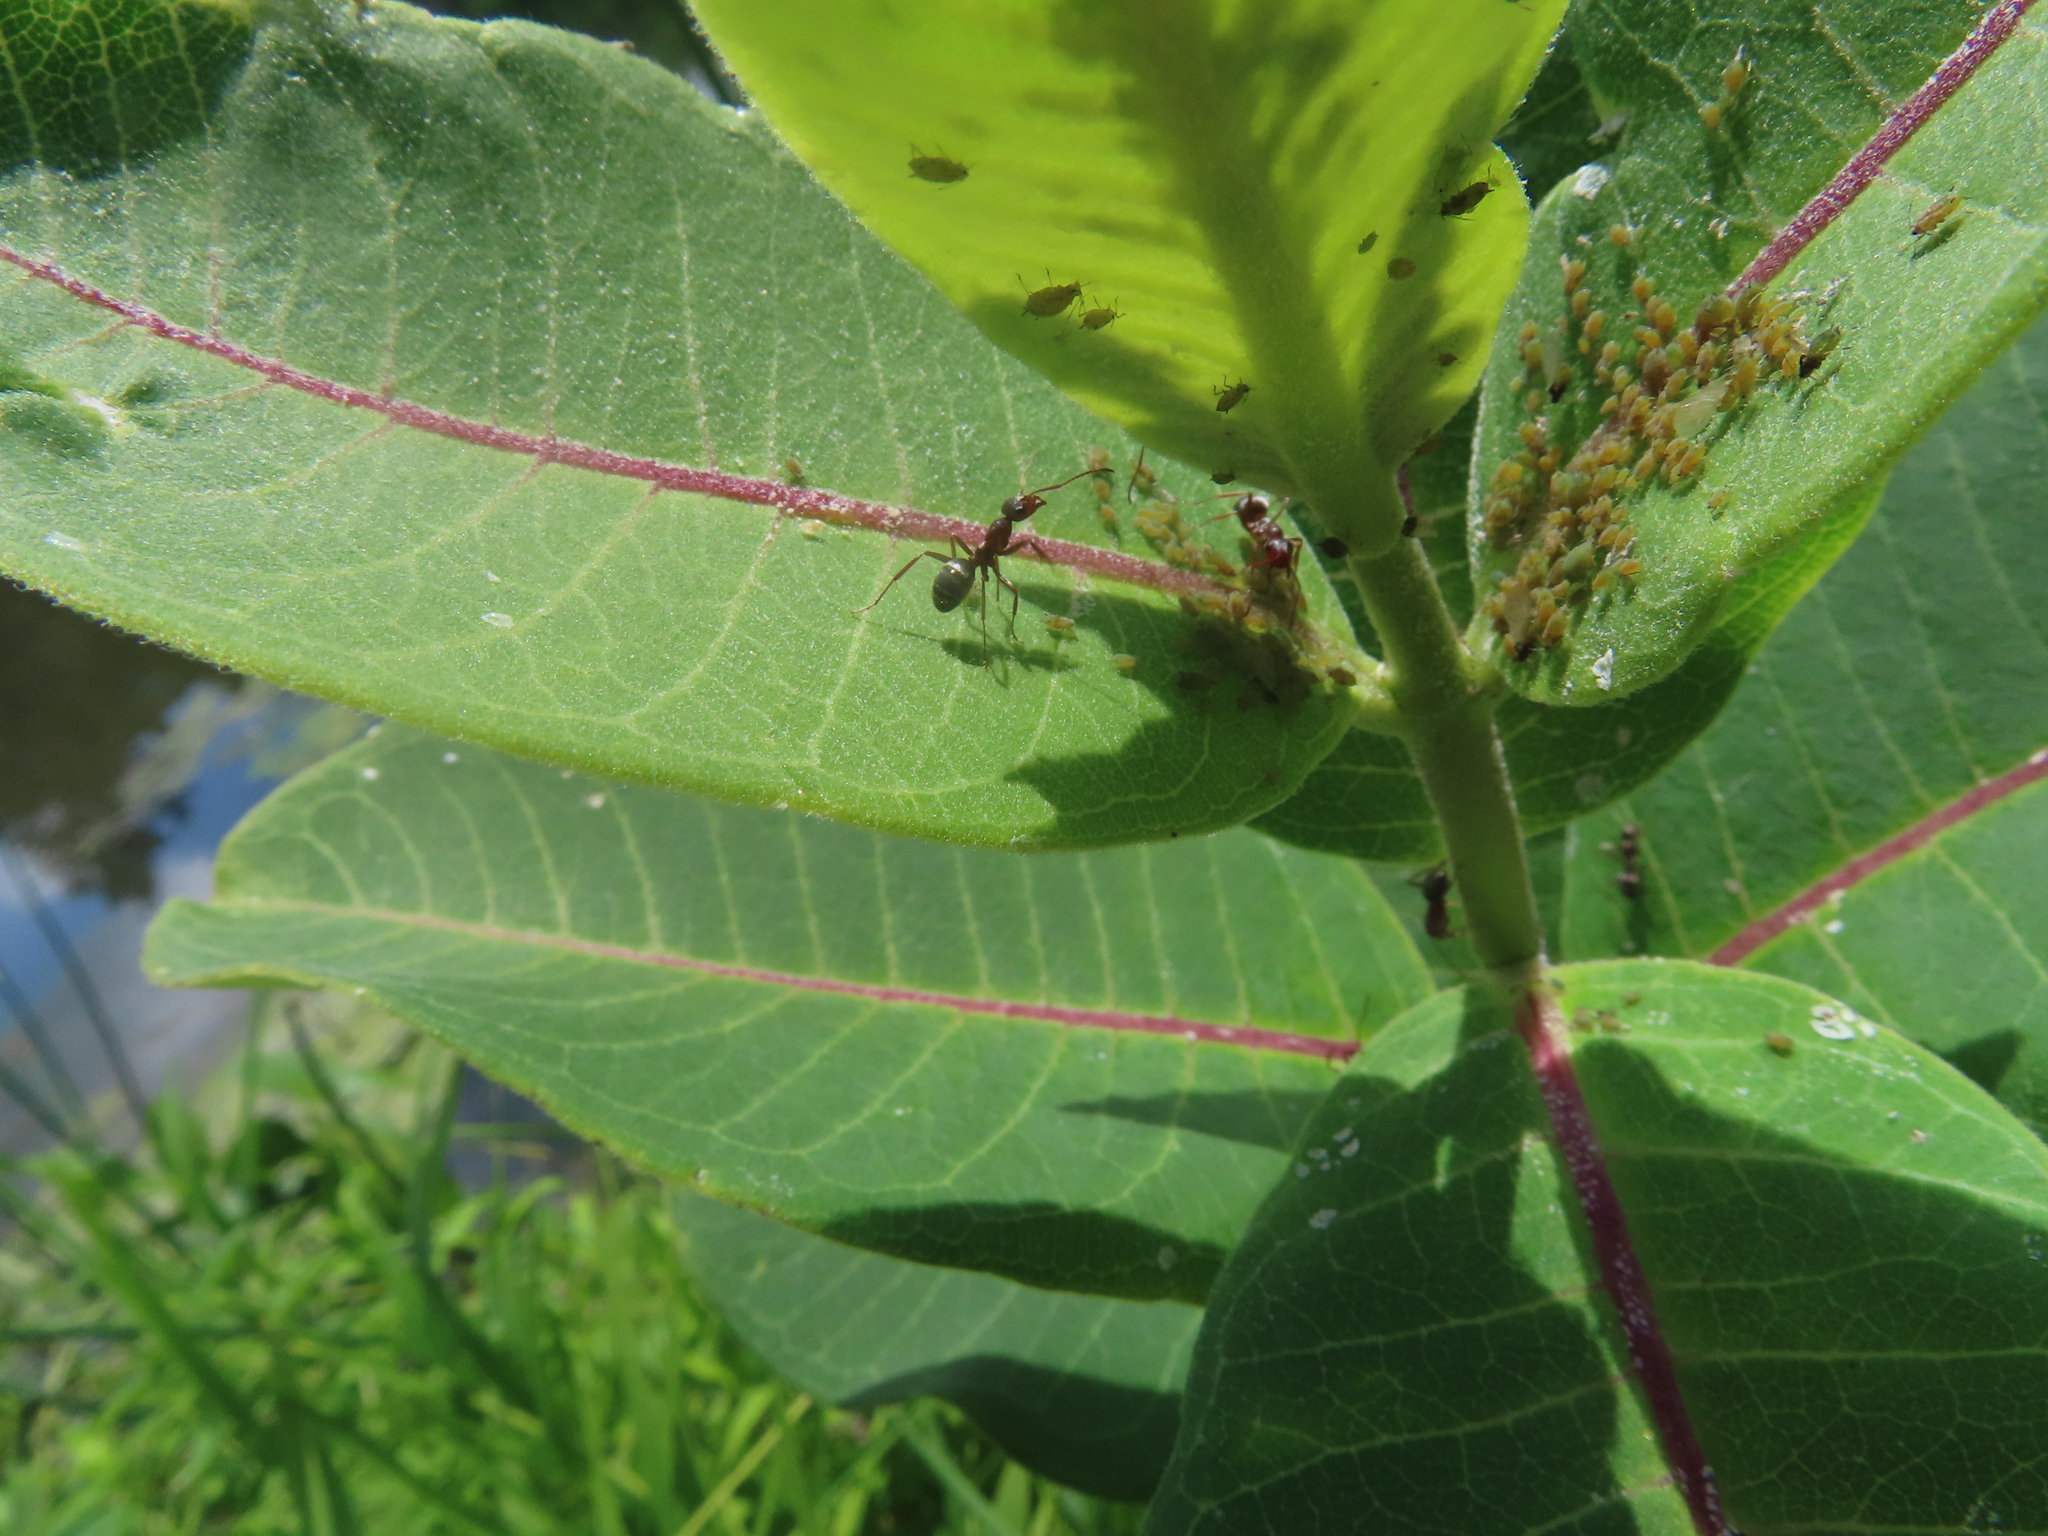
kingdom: Animalia
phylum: Arthropoda
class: Insecta
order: Hymenoptera
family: Formicidae
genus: Formica
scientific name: Formica montana
